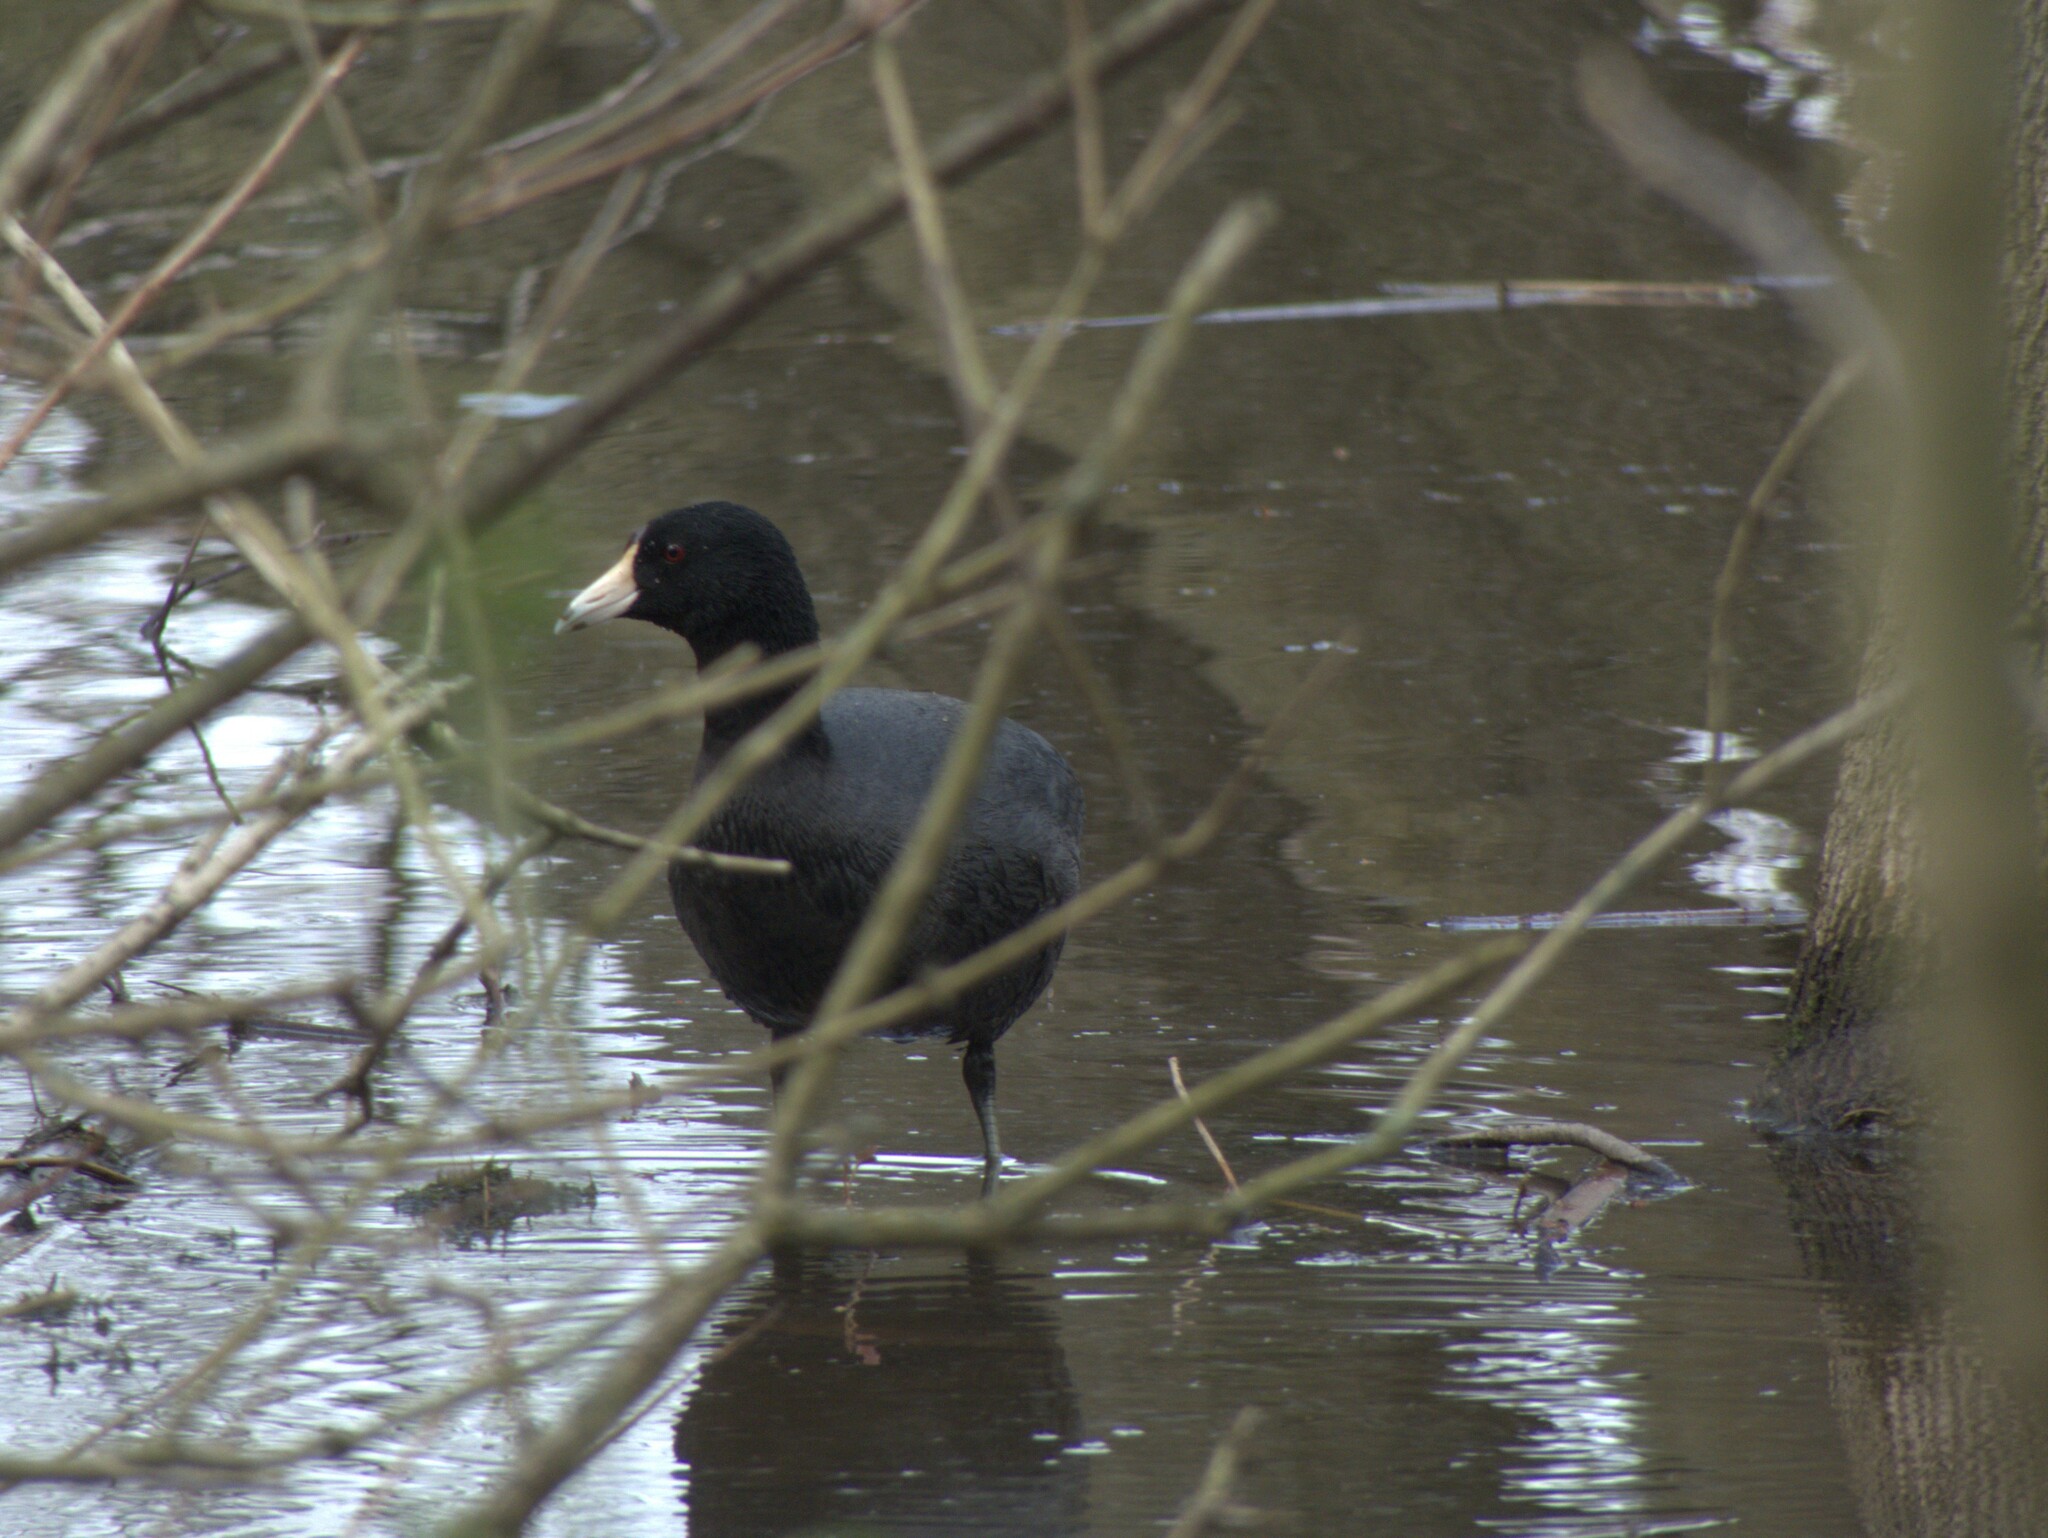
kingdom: Animalia
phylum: Chordata
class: Aves
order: Gruiformes
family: Rallidae
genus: Fulica
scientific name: Fulica americana
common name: American coot
